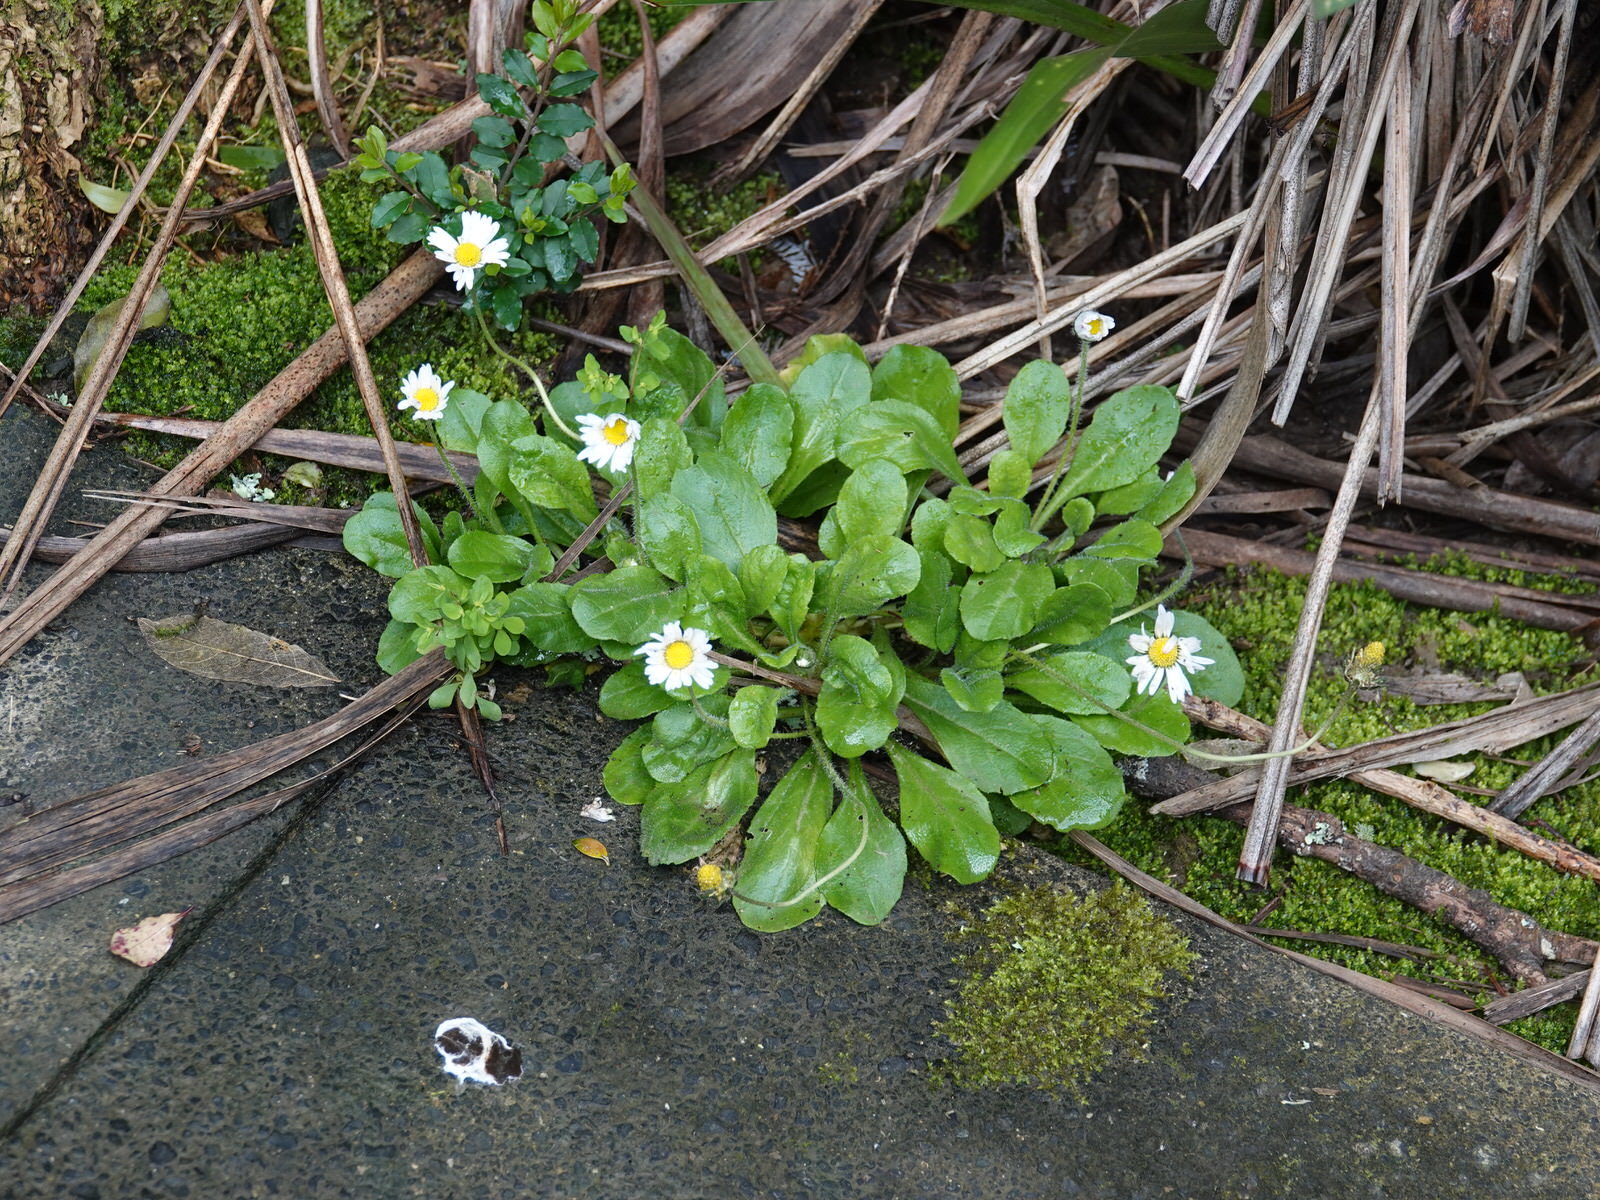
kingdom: Plantae
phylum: Tracheophyta
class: Magnoliopsida
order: Asterales
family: Asteraceae
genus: Bellis
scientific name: Bellis perennis
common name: Lawndaisy
